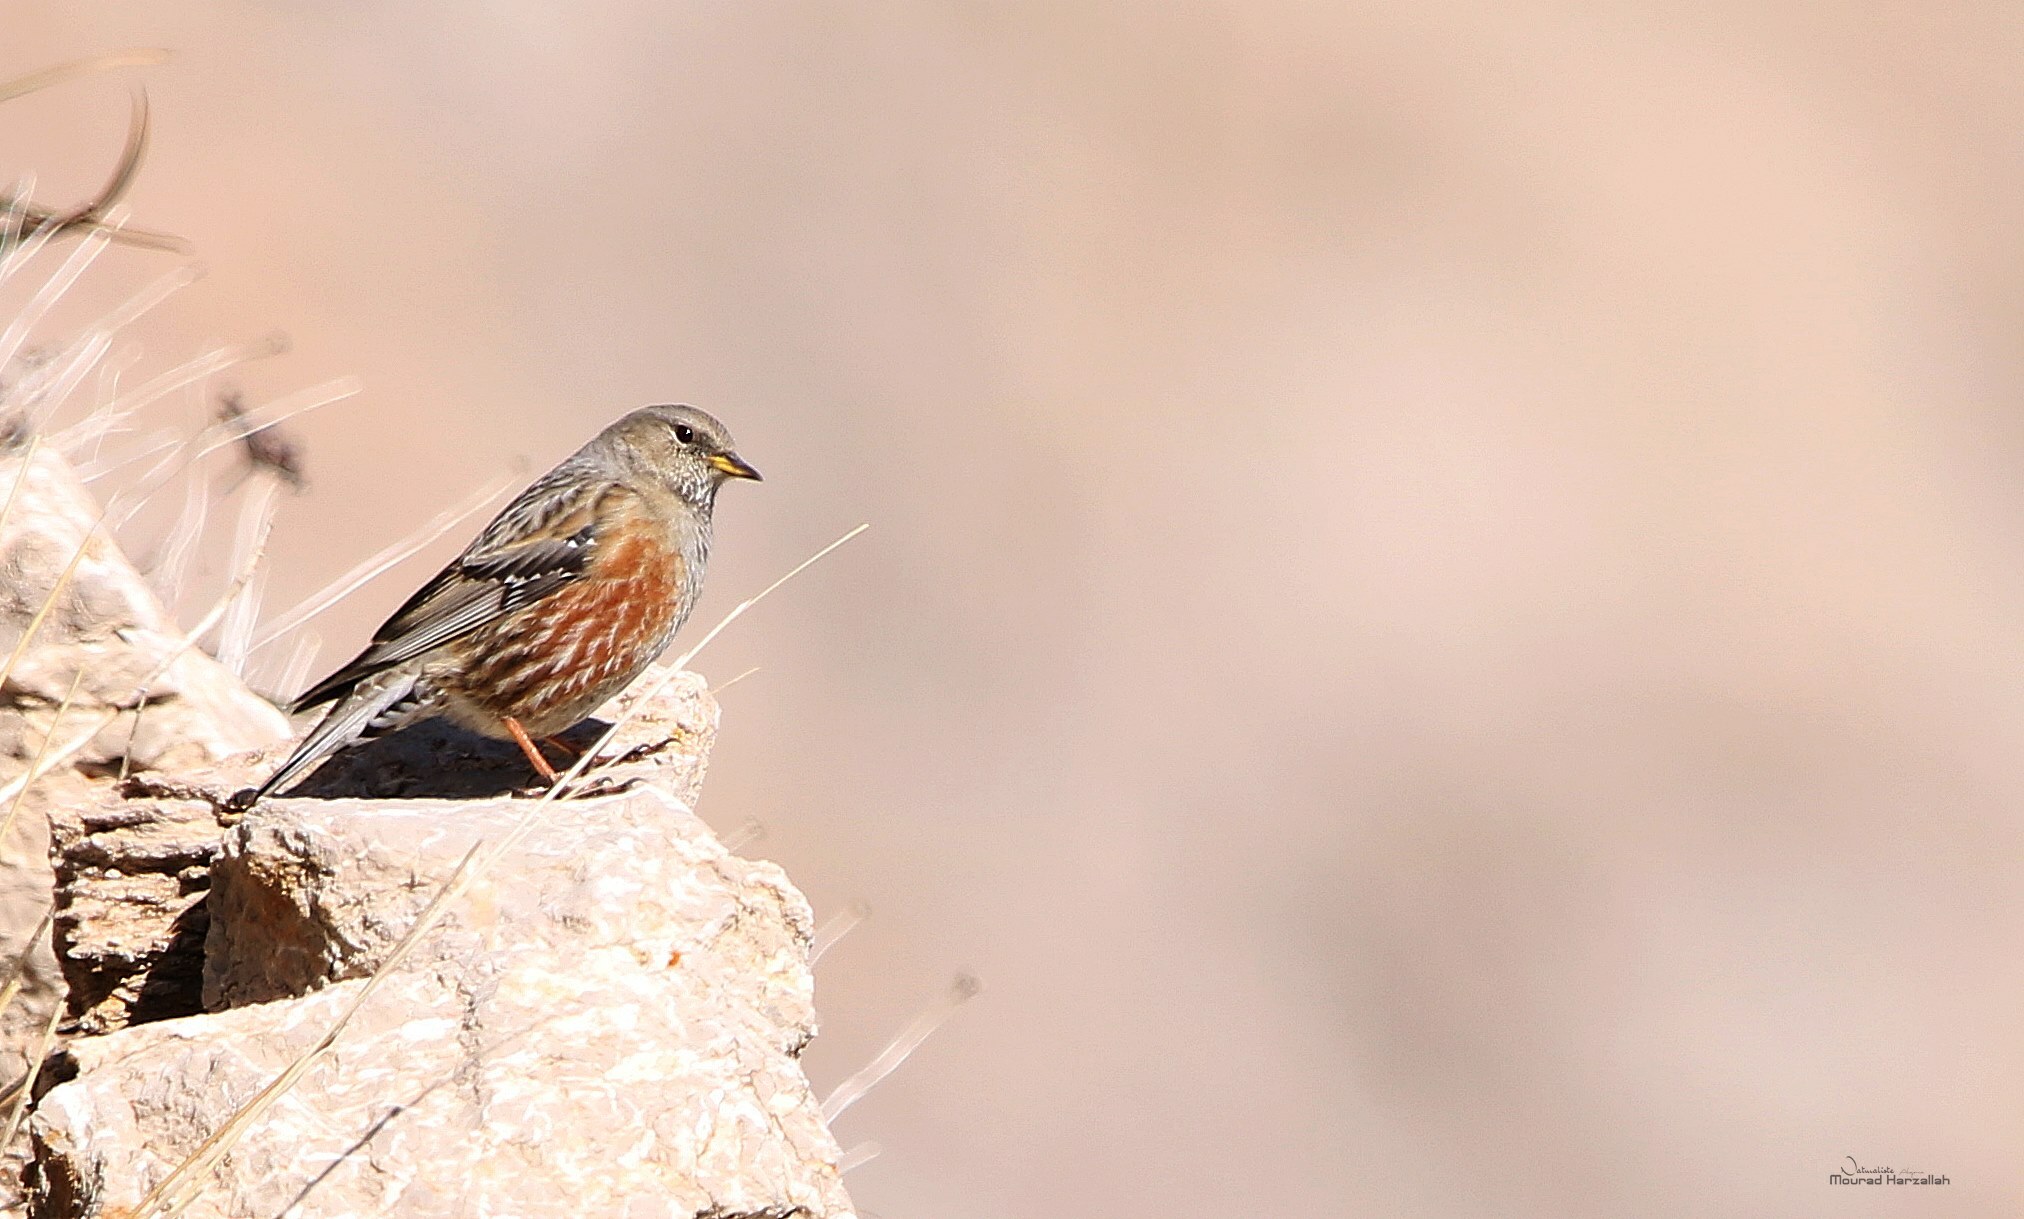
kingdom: Animalia
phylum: Chordata
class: Aves
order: Passeriformes
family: Prunellidae
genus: Prunella
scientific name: Prunella collaris
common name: Alpine accentor
